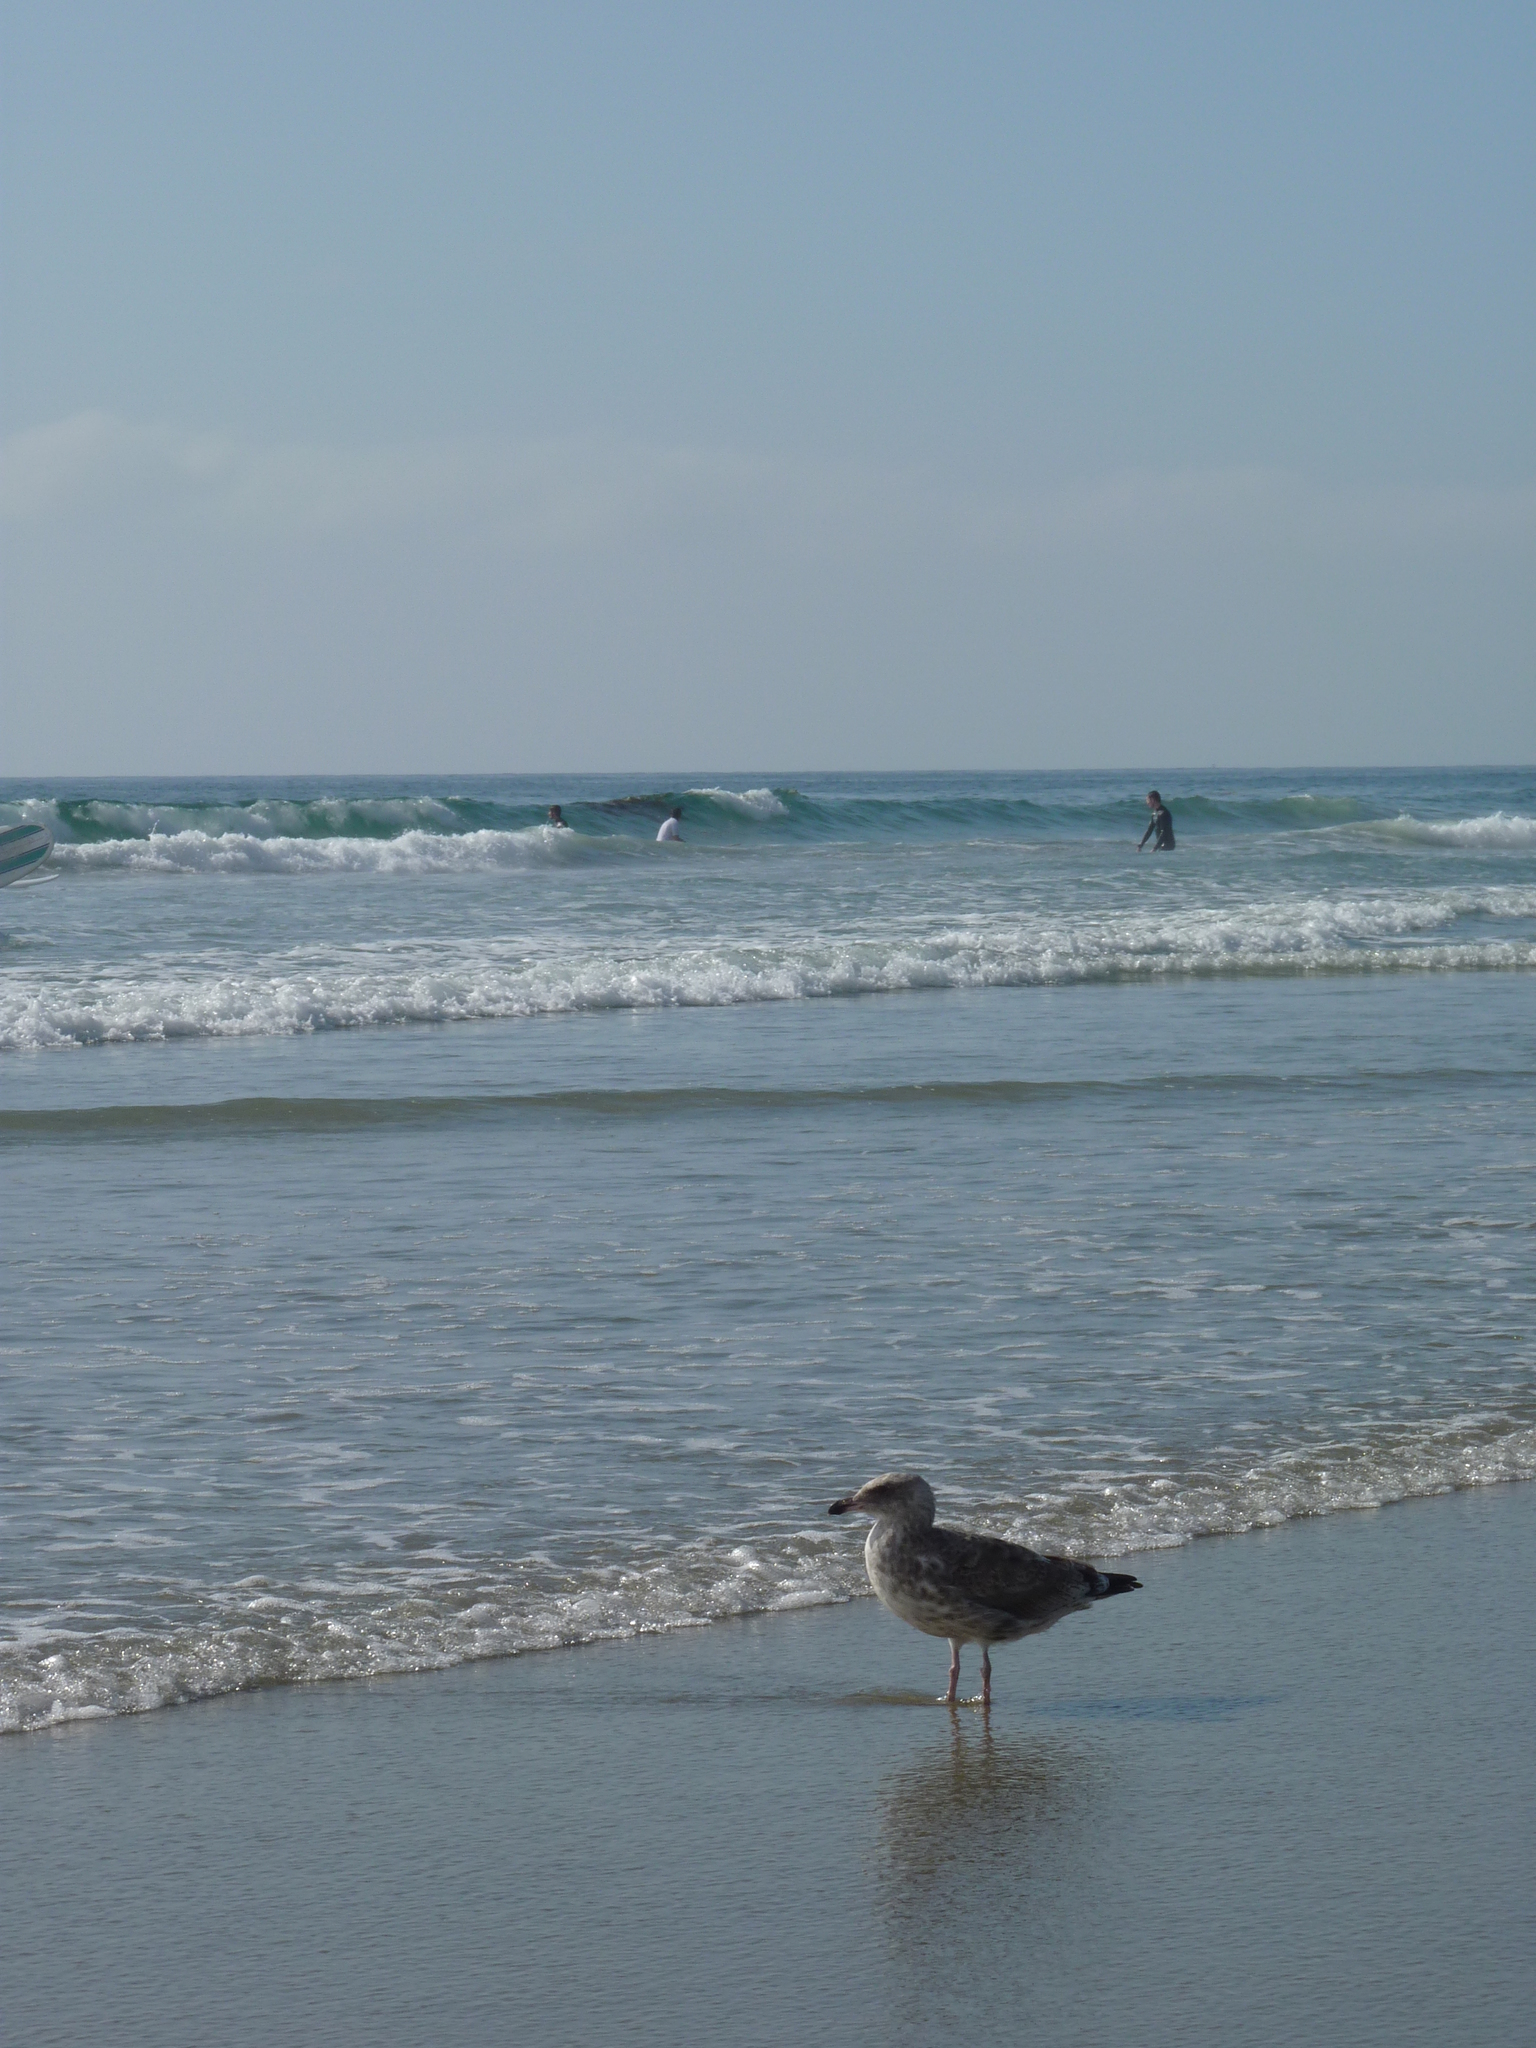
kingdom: Animalia
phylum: Chordata
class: Aves
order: Charadriiformes
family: Laridae
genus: Larus
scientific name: Larus occidentalis
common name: Western gull
